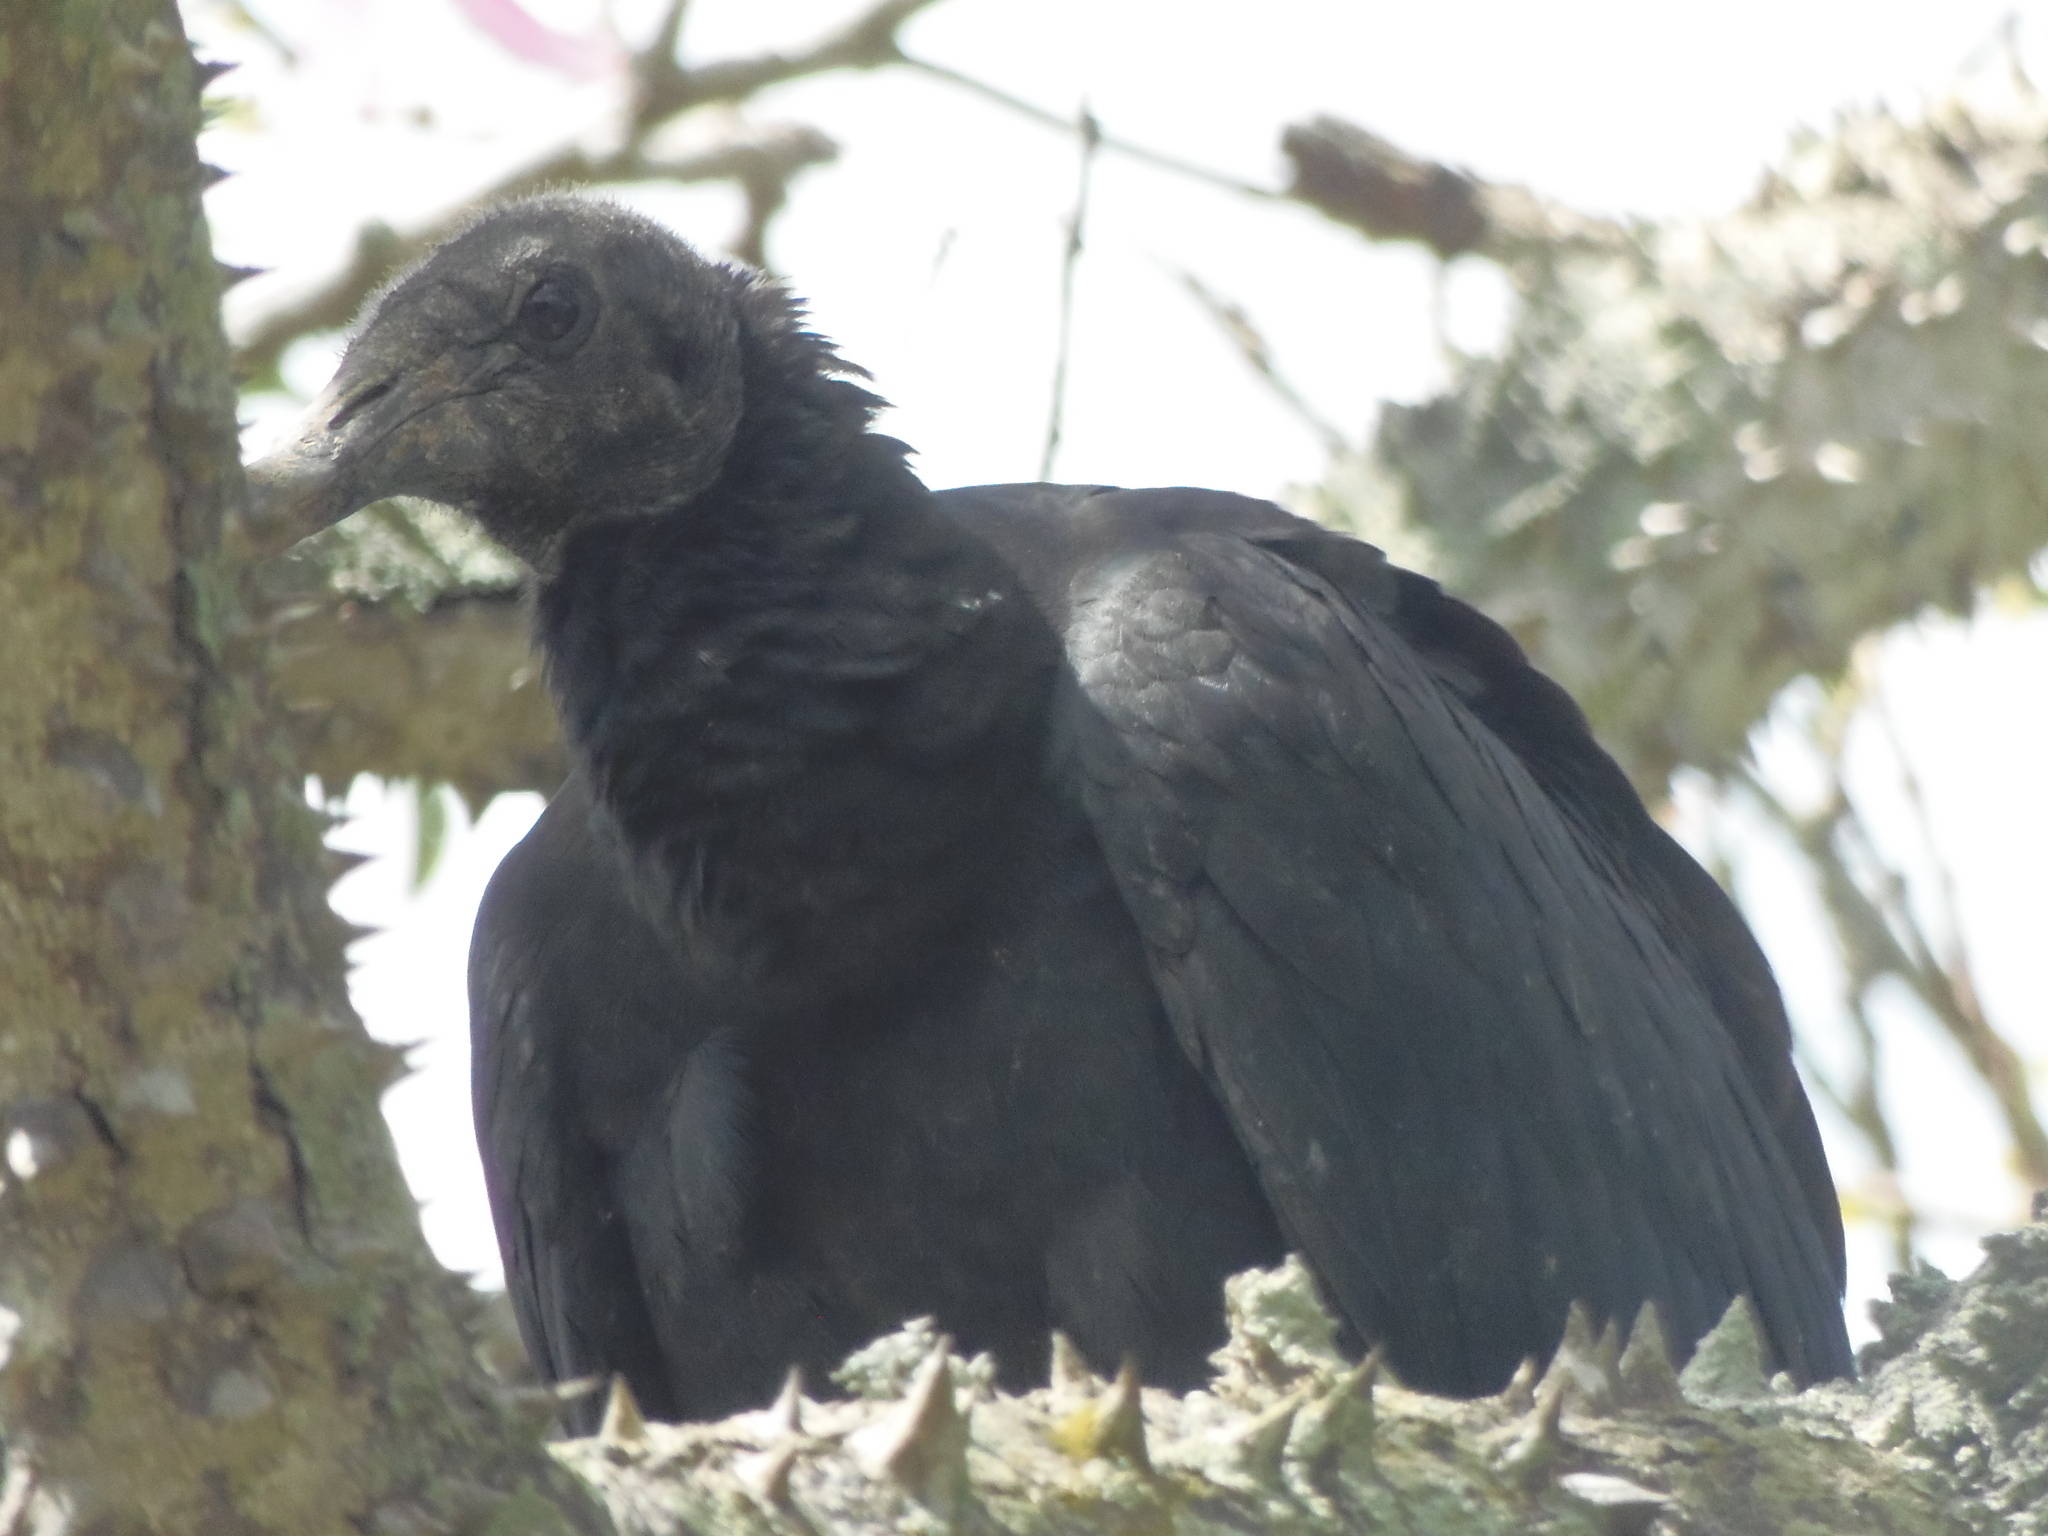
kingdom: Animalia
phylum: Chordata
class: Aves
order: Accipitriformes
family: Cathartidae
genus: Coragyps
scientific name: Coragyps atratus
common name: Black vulture
